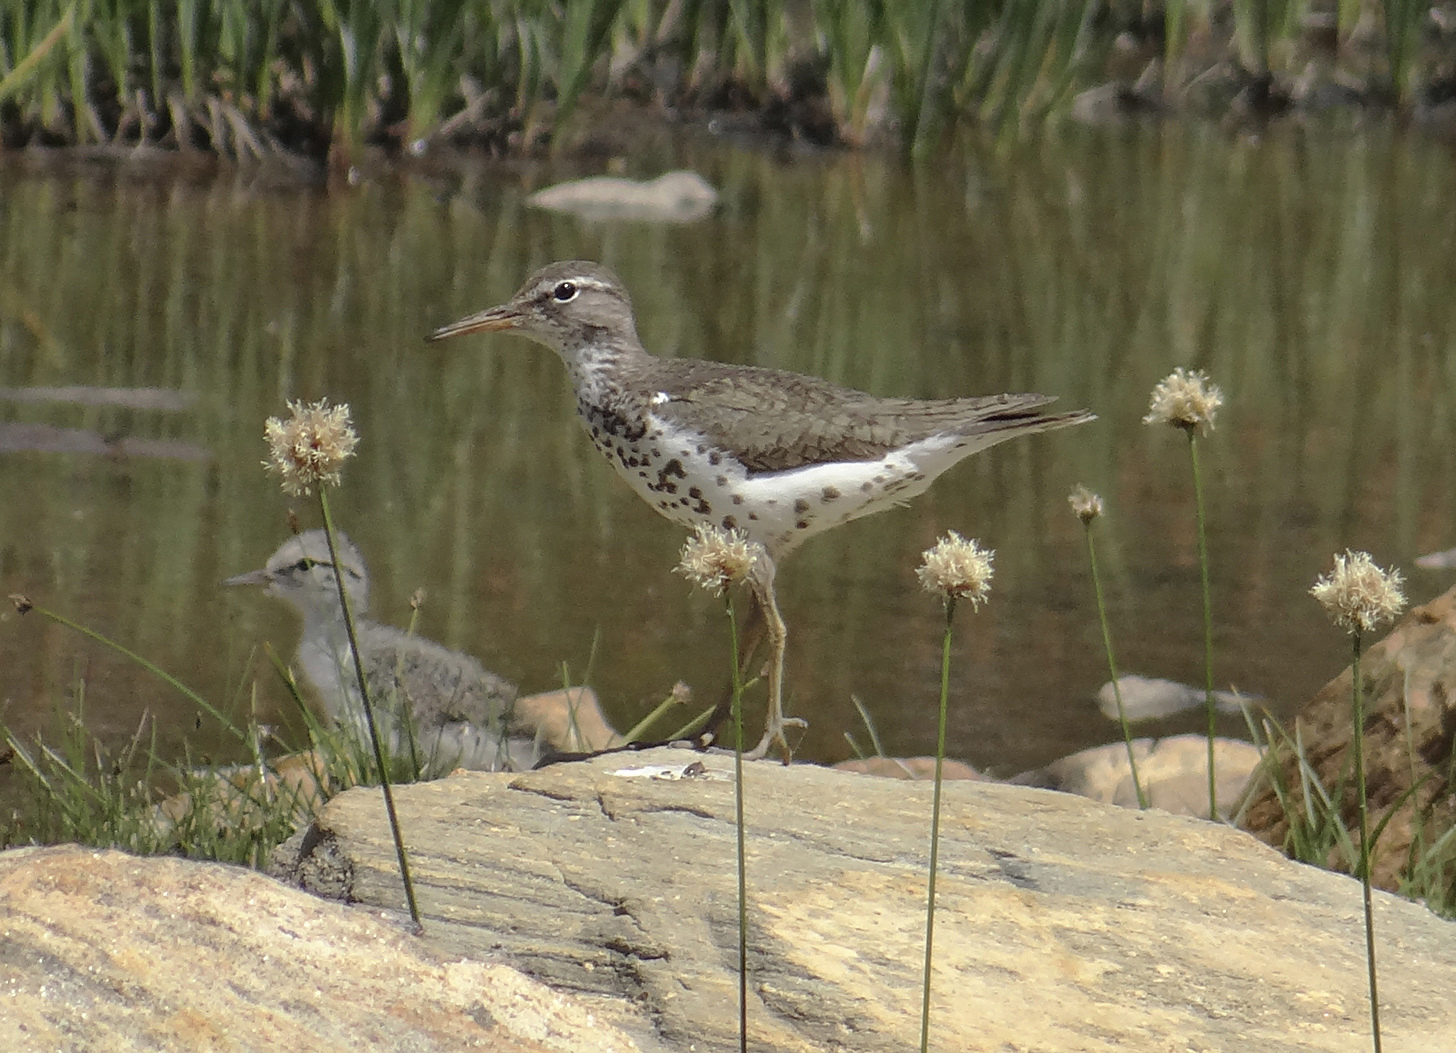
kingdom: Animalia
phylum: Chordata
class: Aves
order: Charadriiformes
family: Scolopacidae
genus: Actitis
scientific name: Actitis macularius
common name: Spotted sandpiper
